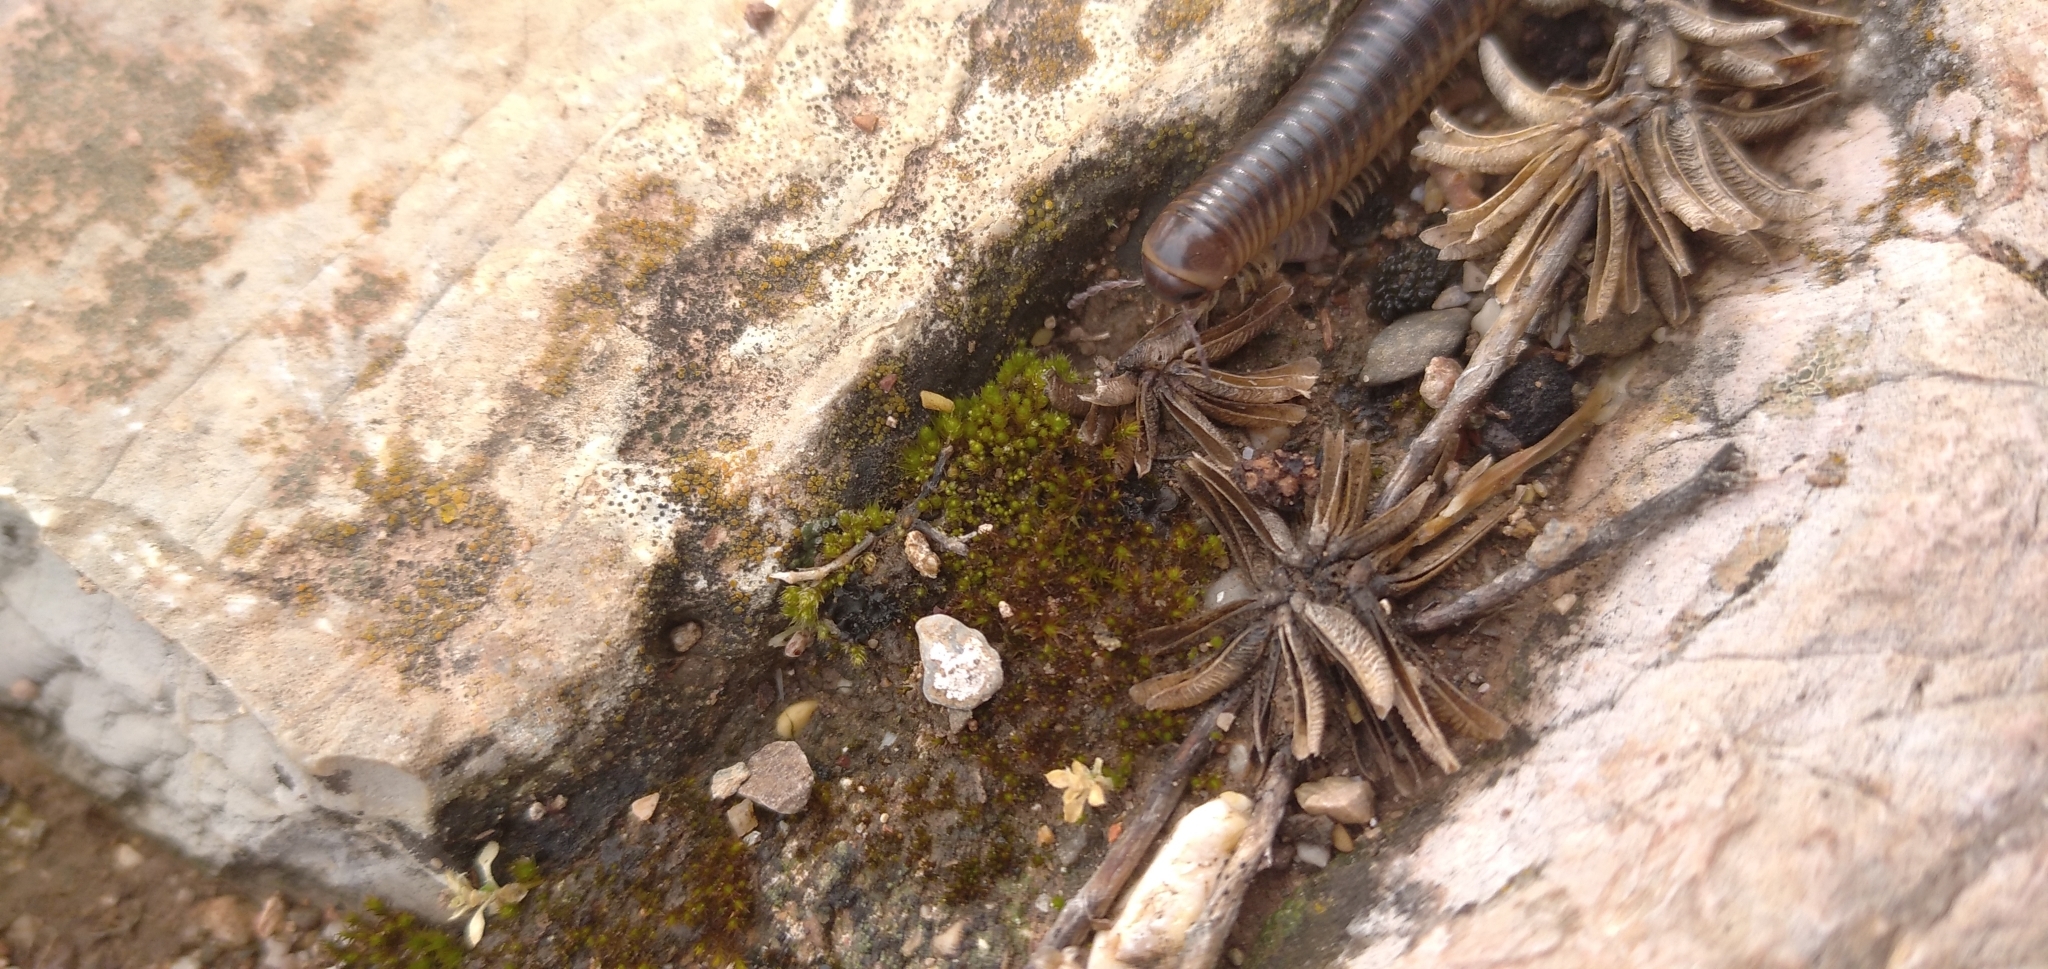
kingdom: Animalia
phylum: Arthropoda
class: Diplopoda
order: Julida
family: Julidae
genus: Pachyiulus
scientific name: Pachyiulus flavipes
